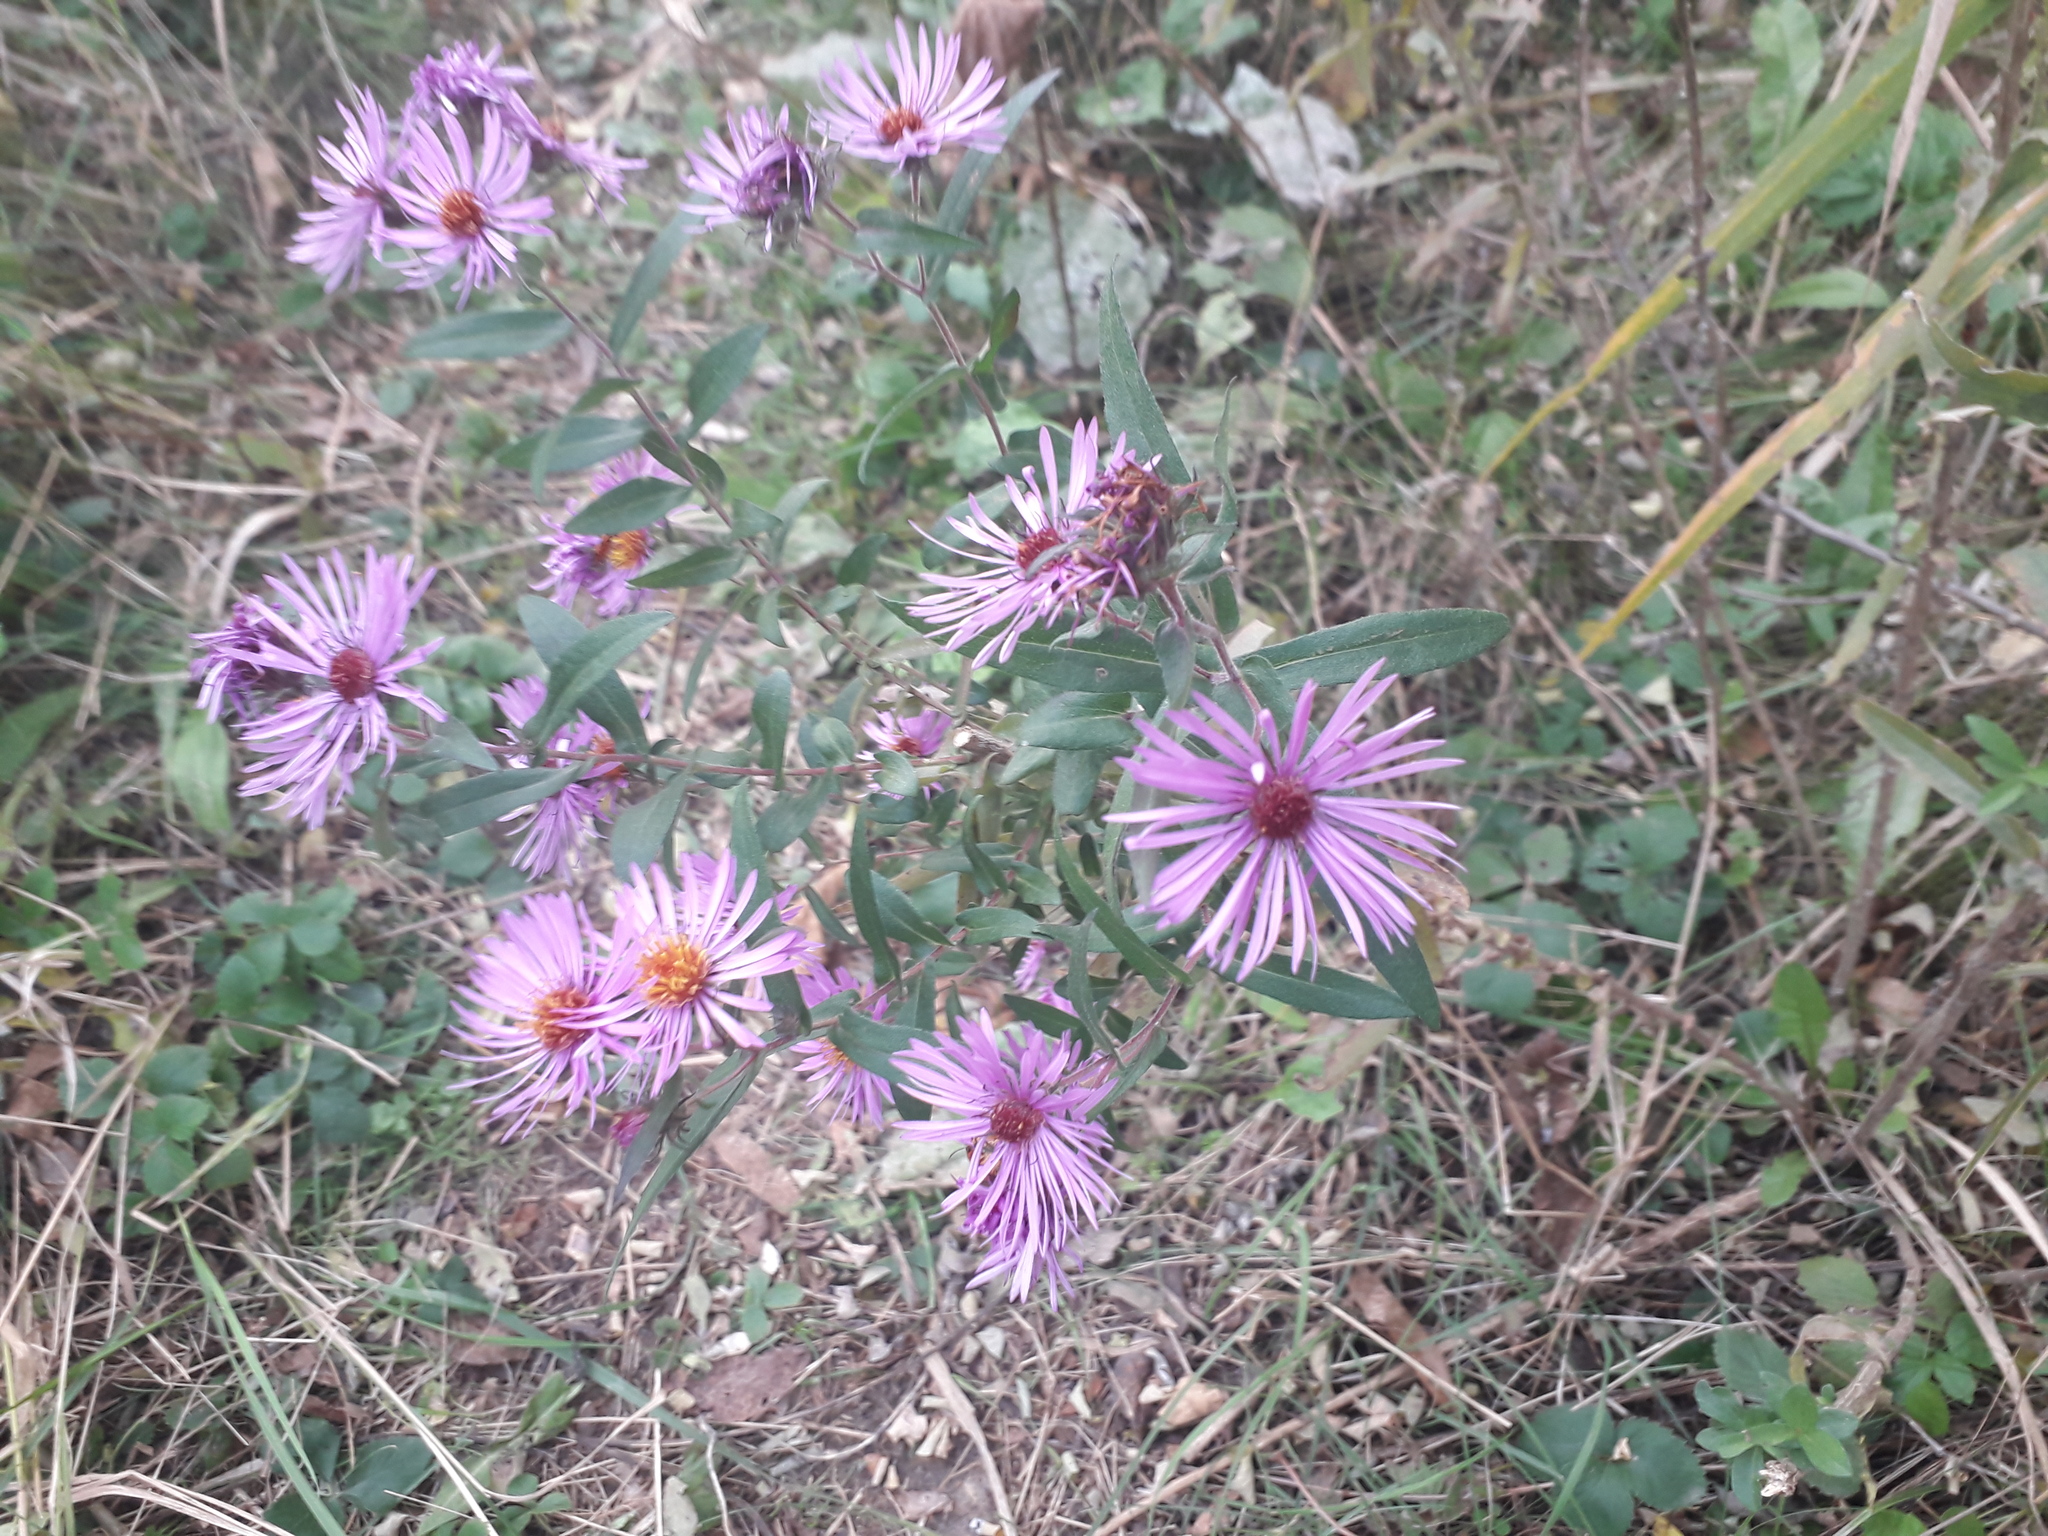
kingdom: Plantae
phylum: Tracheophyta
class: Magnoliopsida
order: Asterales
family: Asteraceae
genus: Symphyotrichum
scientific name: Symphyotrichum novae-angliae
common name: Michaelmas daisy
